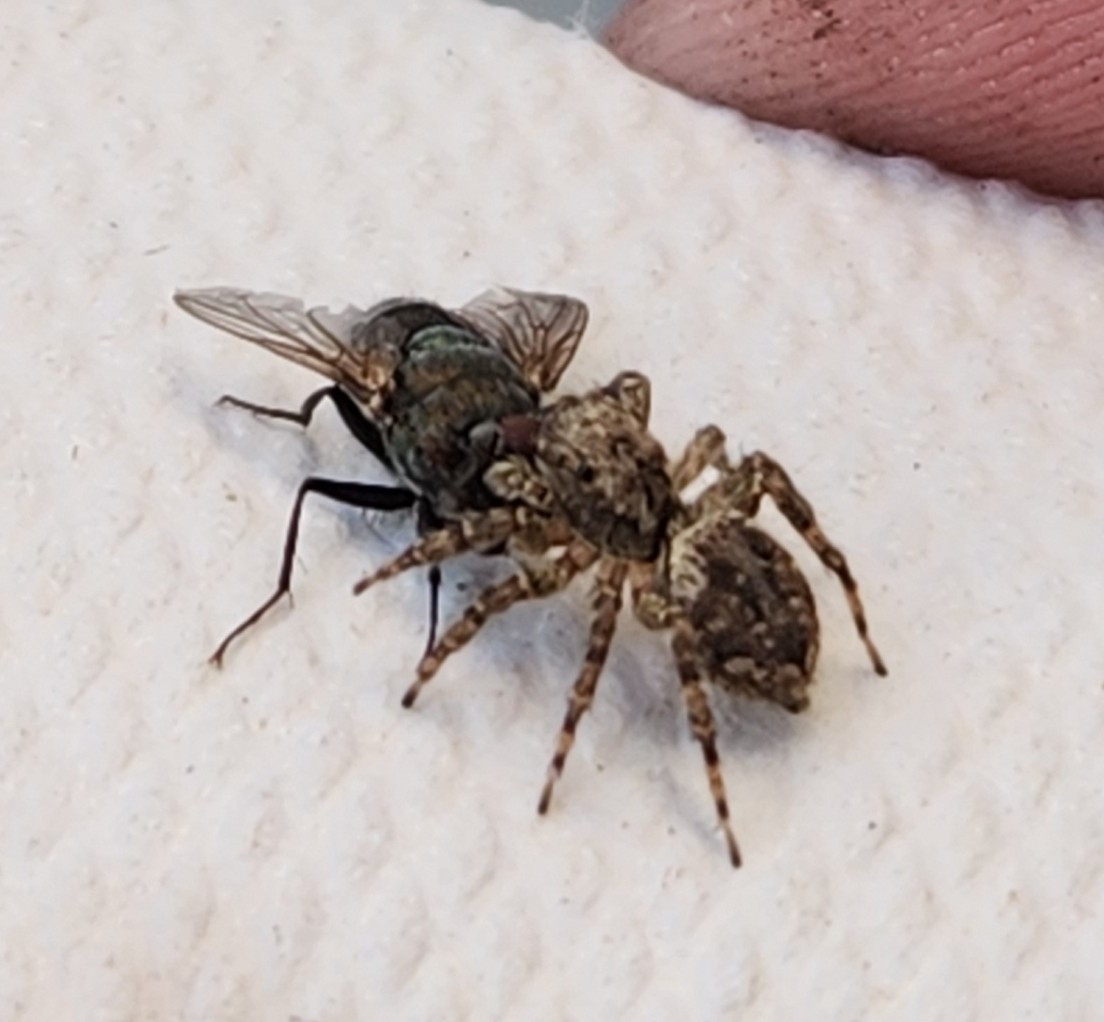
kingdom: Animalia
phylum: Arthropoda
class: Arachnida
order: Araneae
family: Salticidae
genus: Mexigonus
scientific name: Mexigonus minutus
